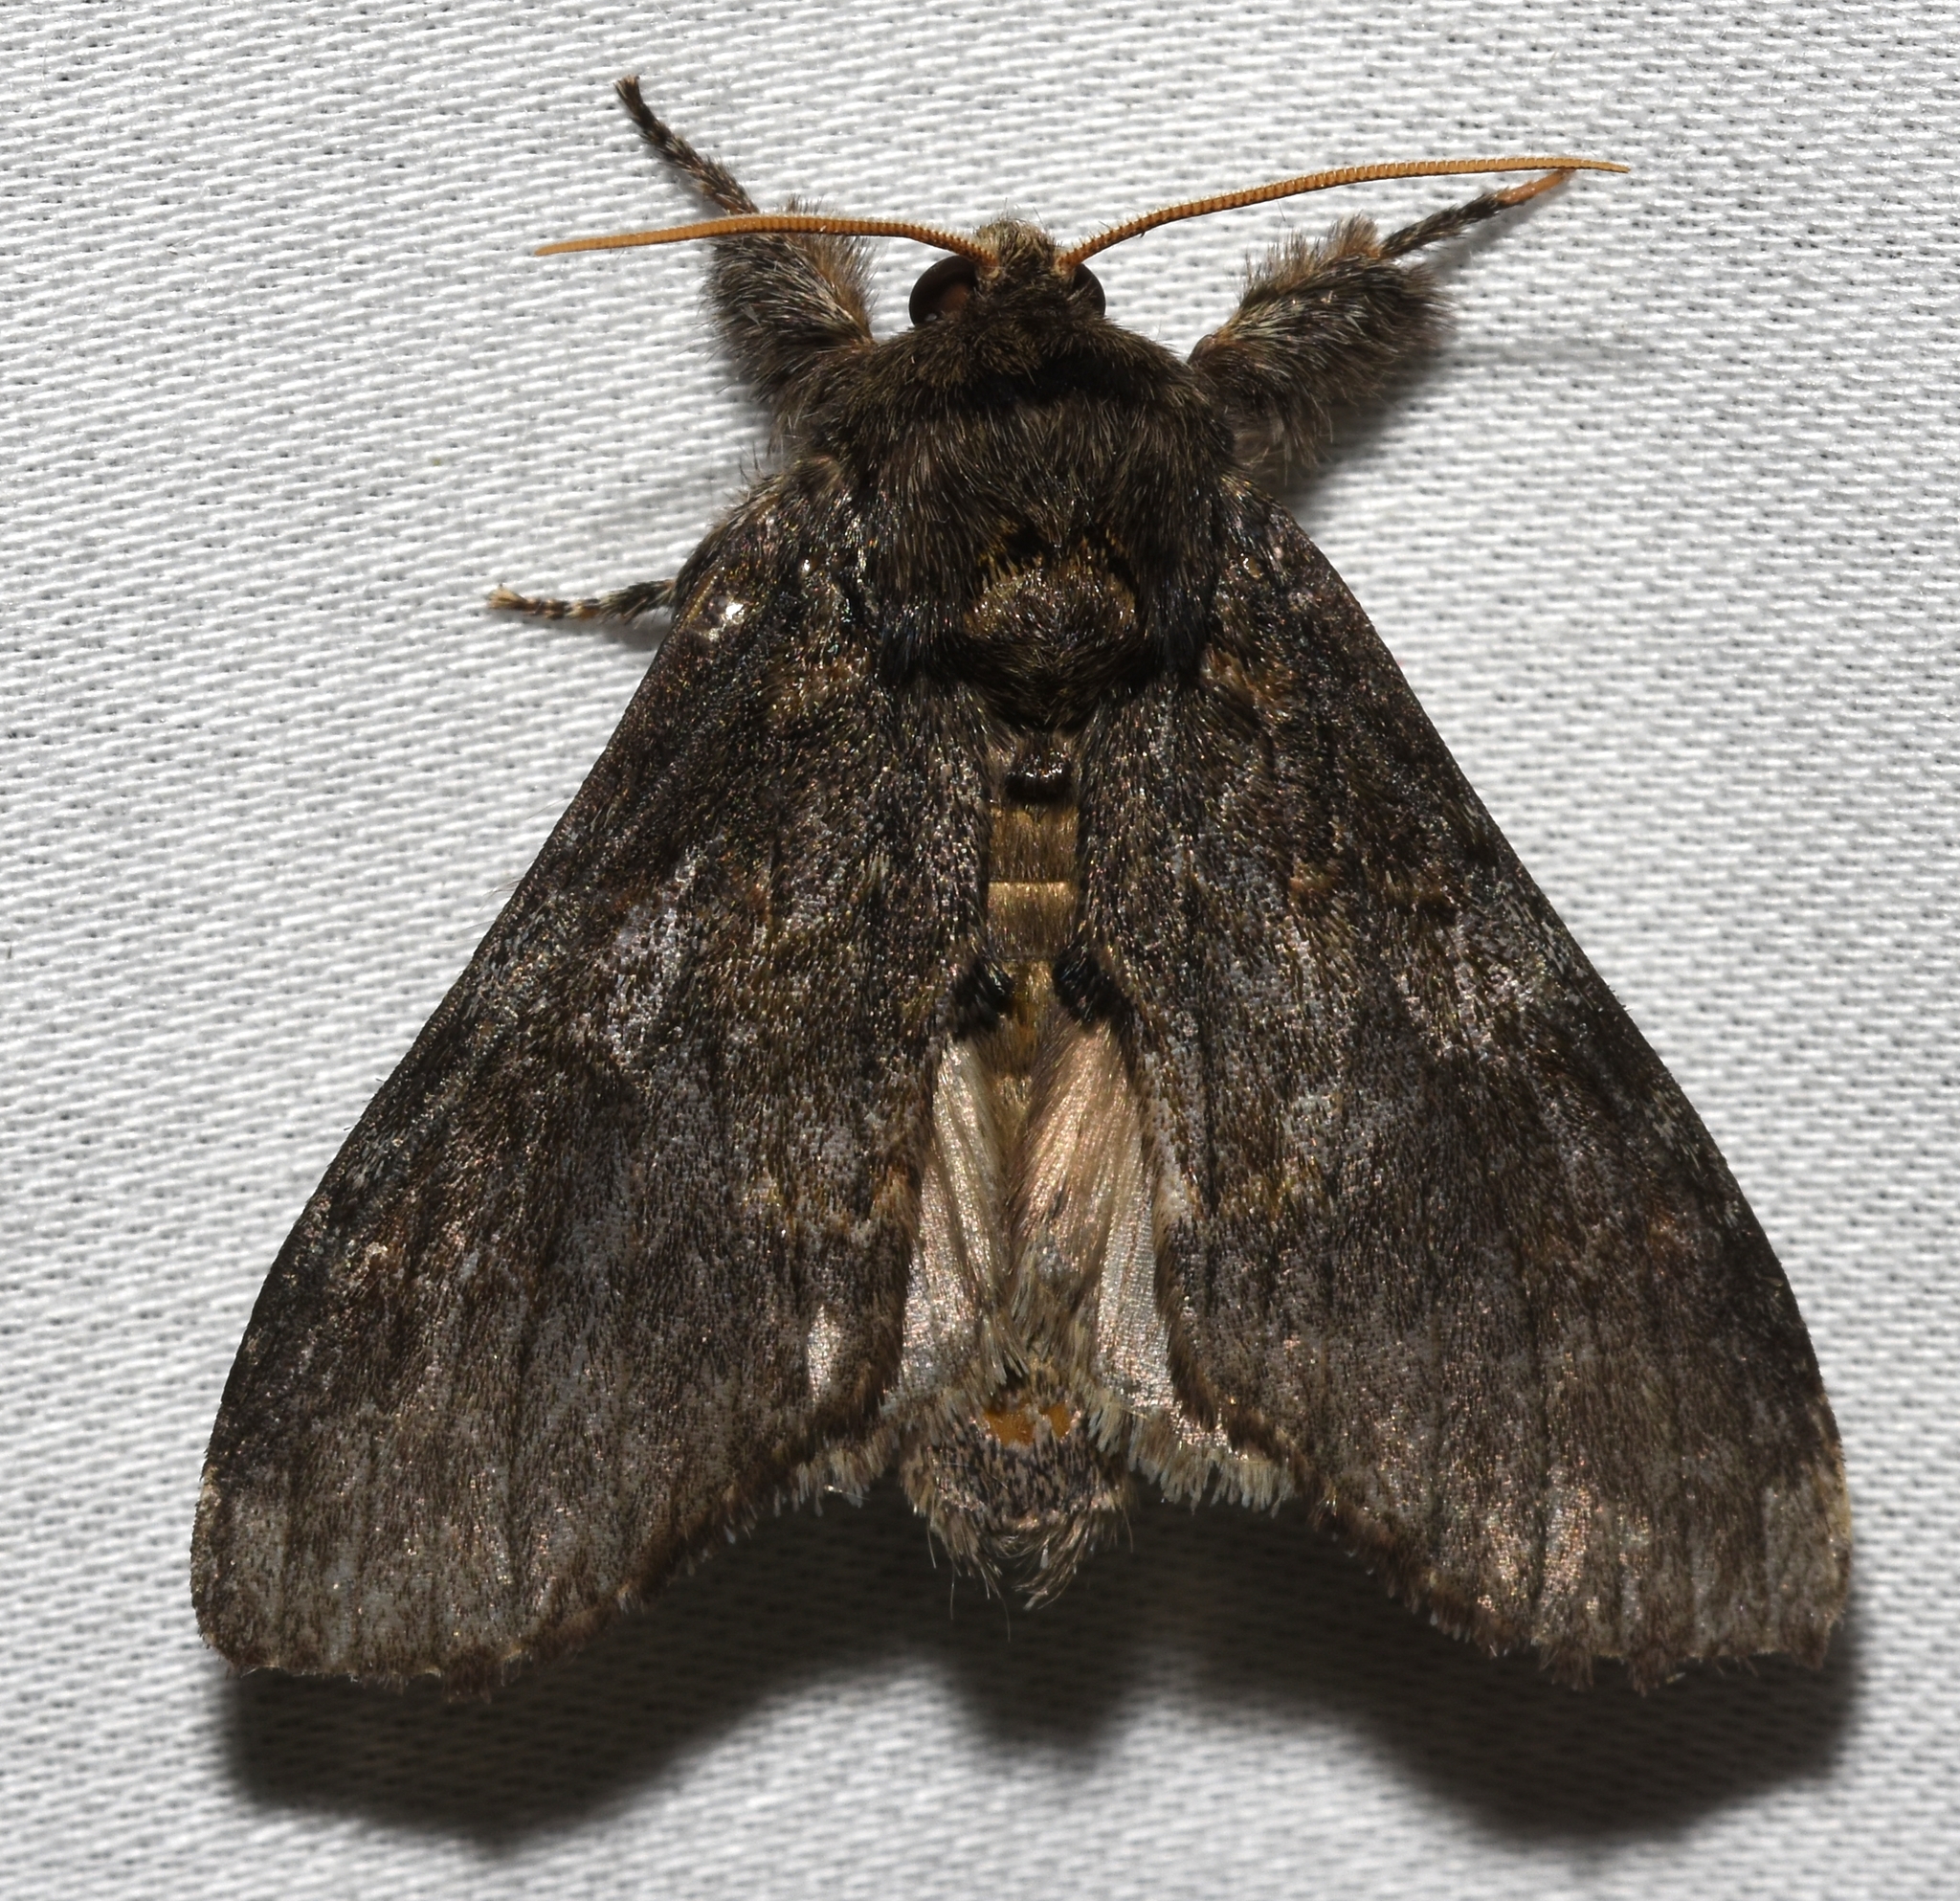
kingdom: Animalia
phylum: Arthropoda
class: Insecta
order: Lepidoptera
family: Notodontidae
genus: Peridea
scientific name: Peridea angulosa
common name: Angulose prominent
